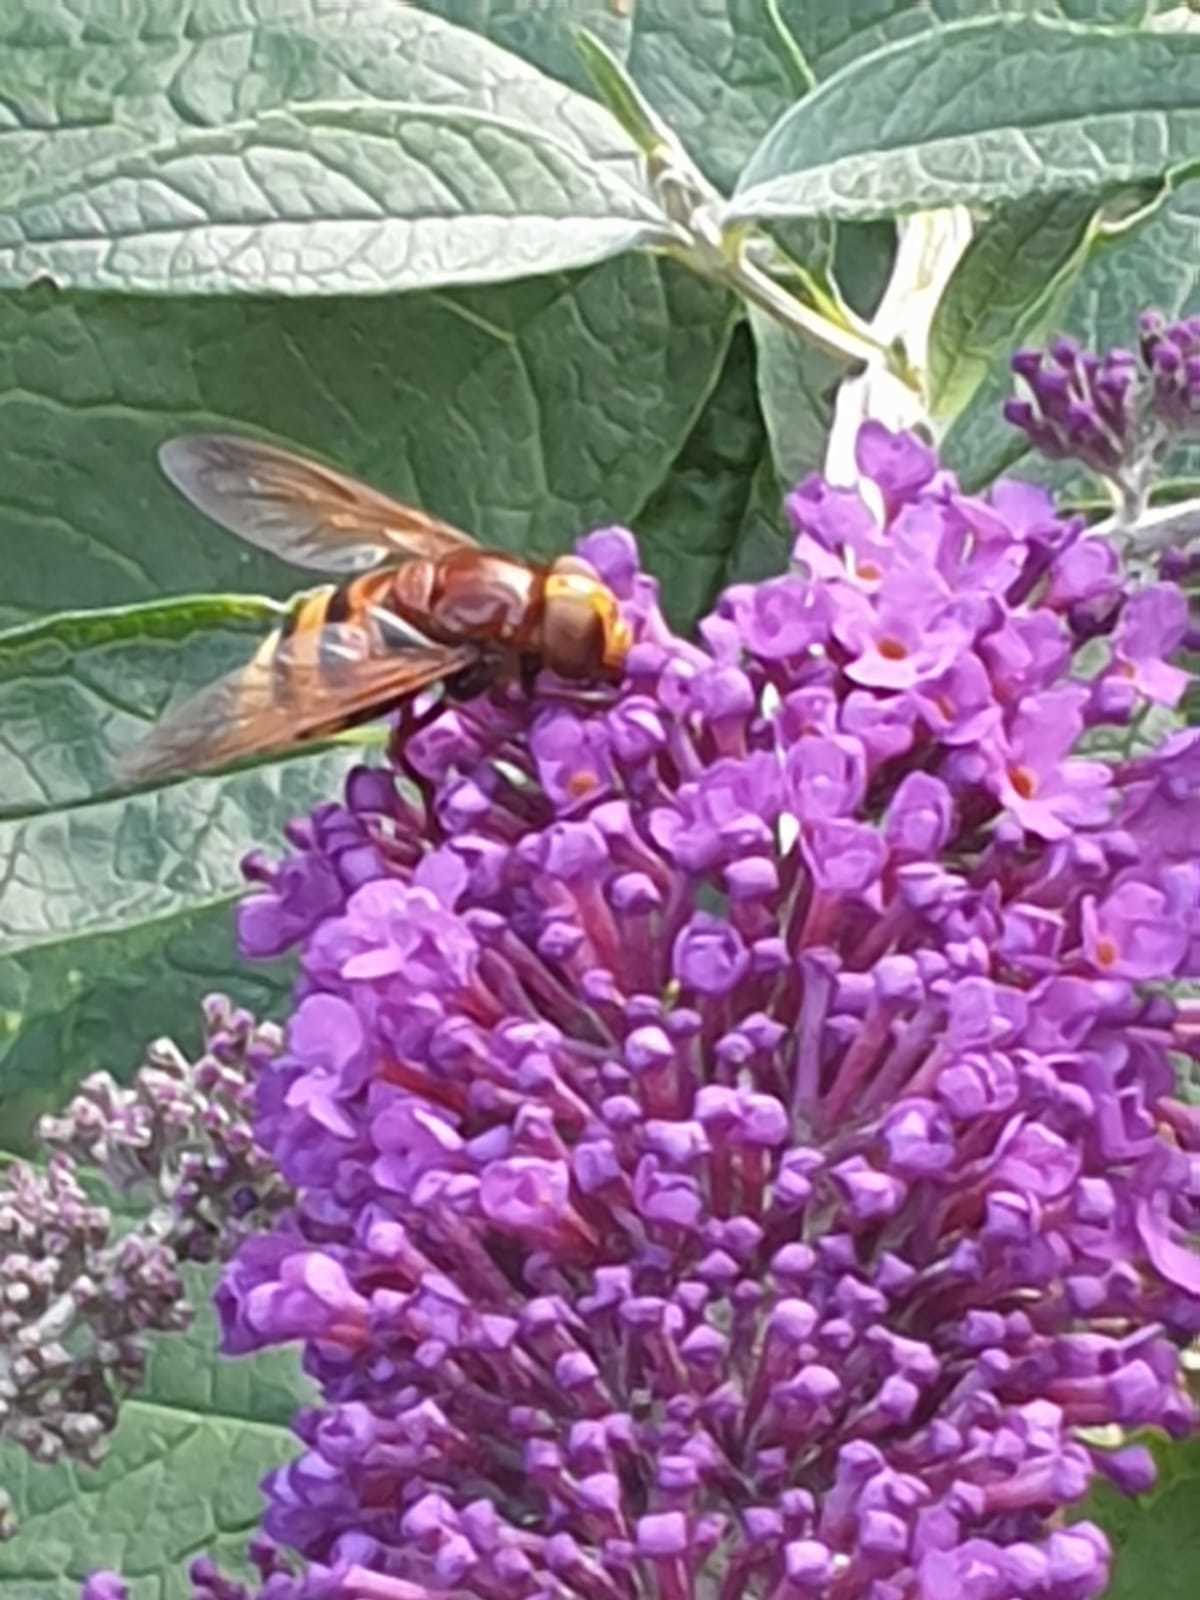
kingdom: Animalia
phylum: Arthropoda
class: Insecta
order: Diptera
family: Syrphidae
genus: Volucella
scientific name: Volucella zonaria
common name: Hornet hoverfly
